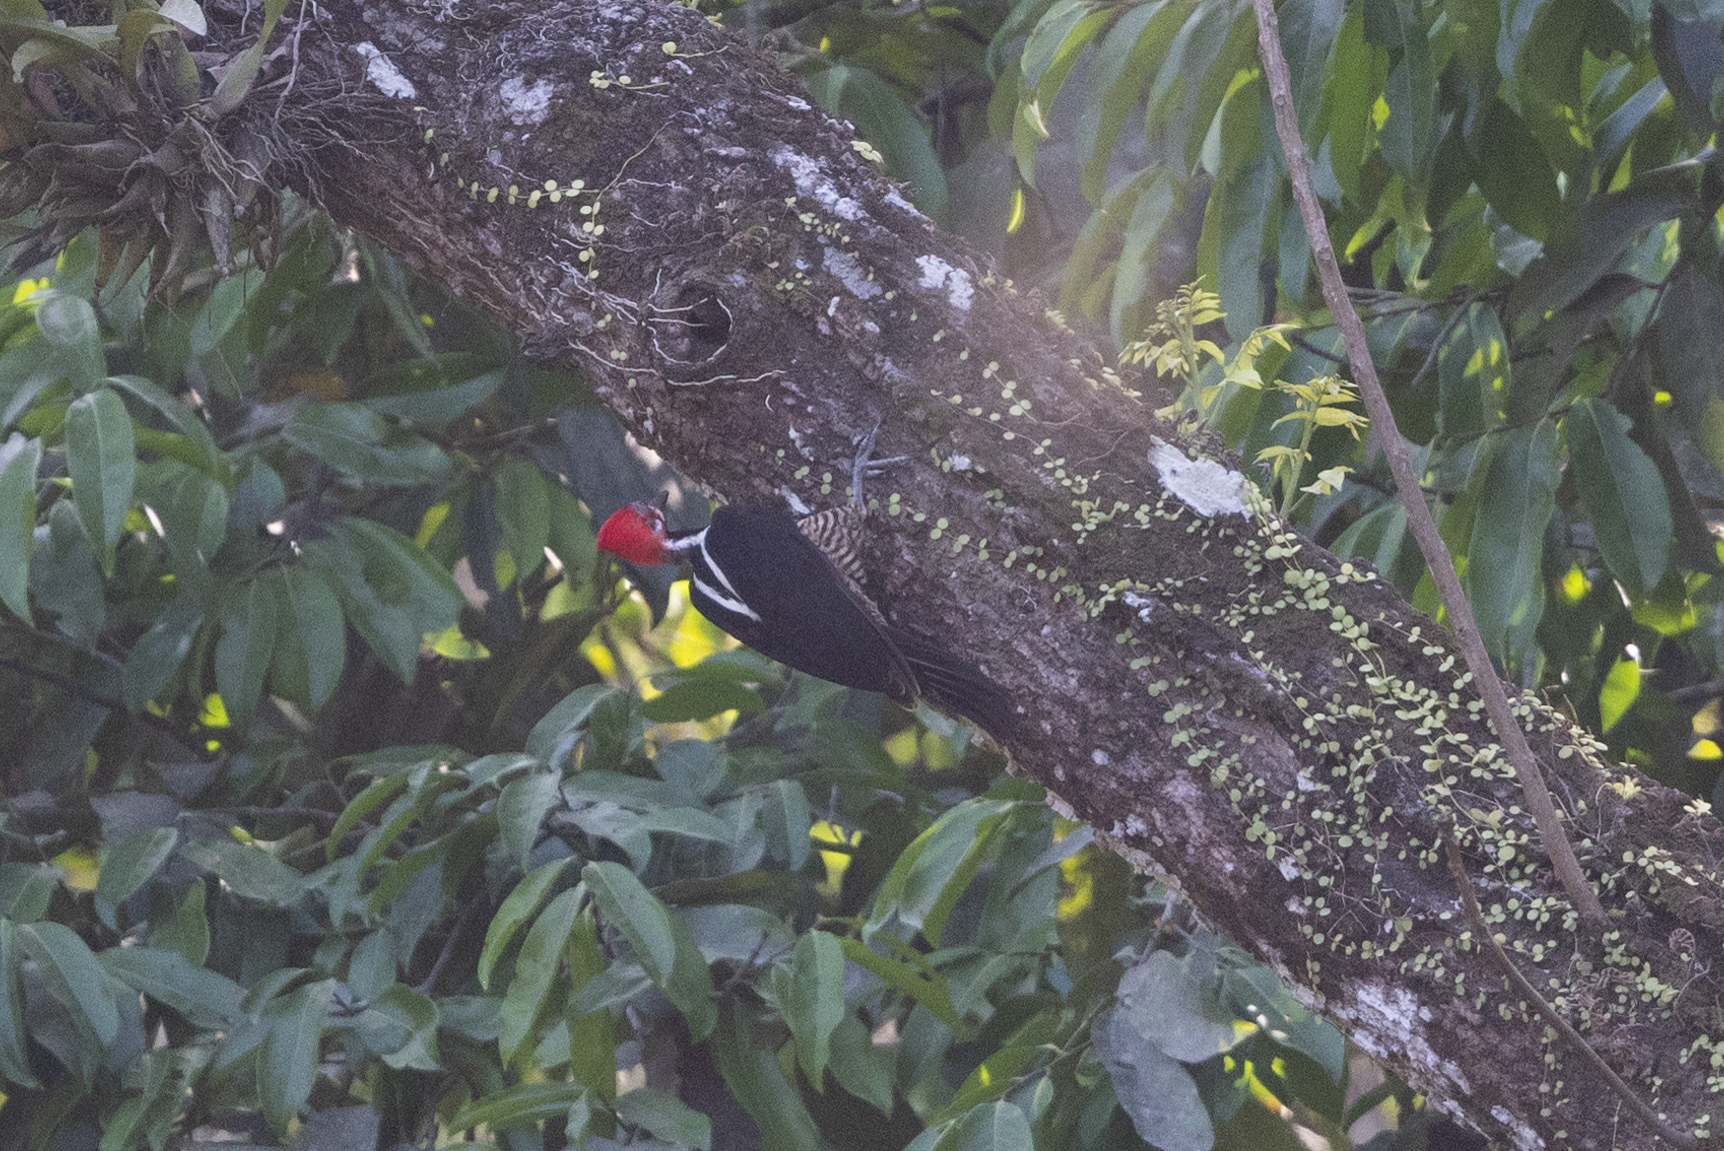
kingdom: Animalia
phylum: Chordata
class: Aves
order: Piciformes
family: Picidae
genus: Campephilus
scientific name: Campephilus melanoleucos
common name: Crimson-crested woodpecker
